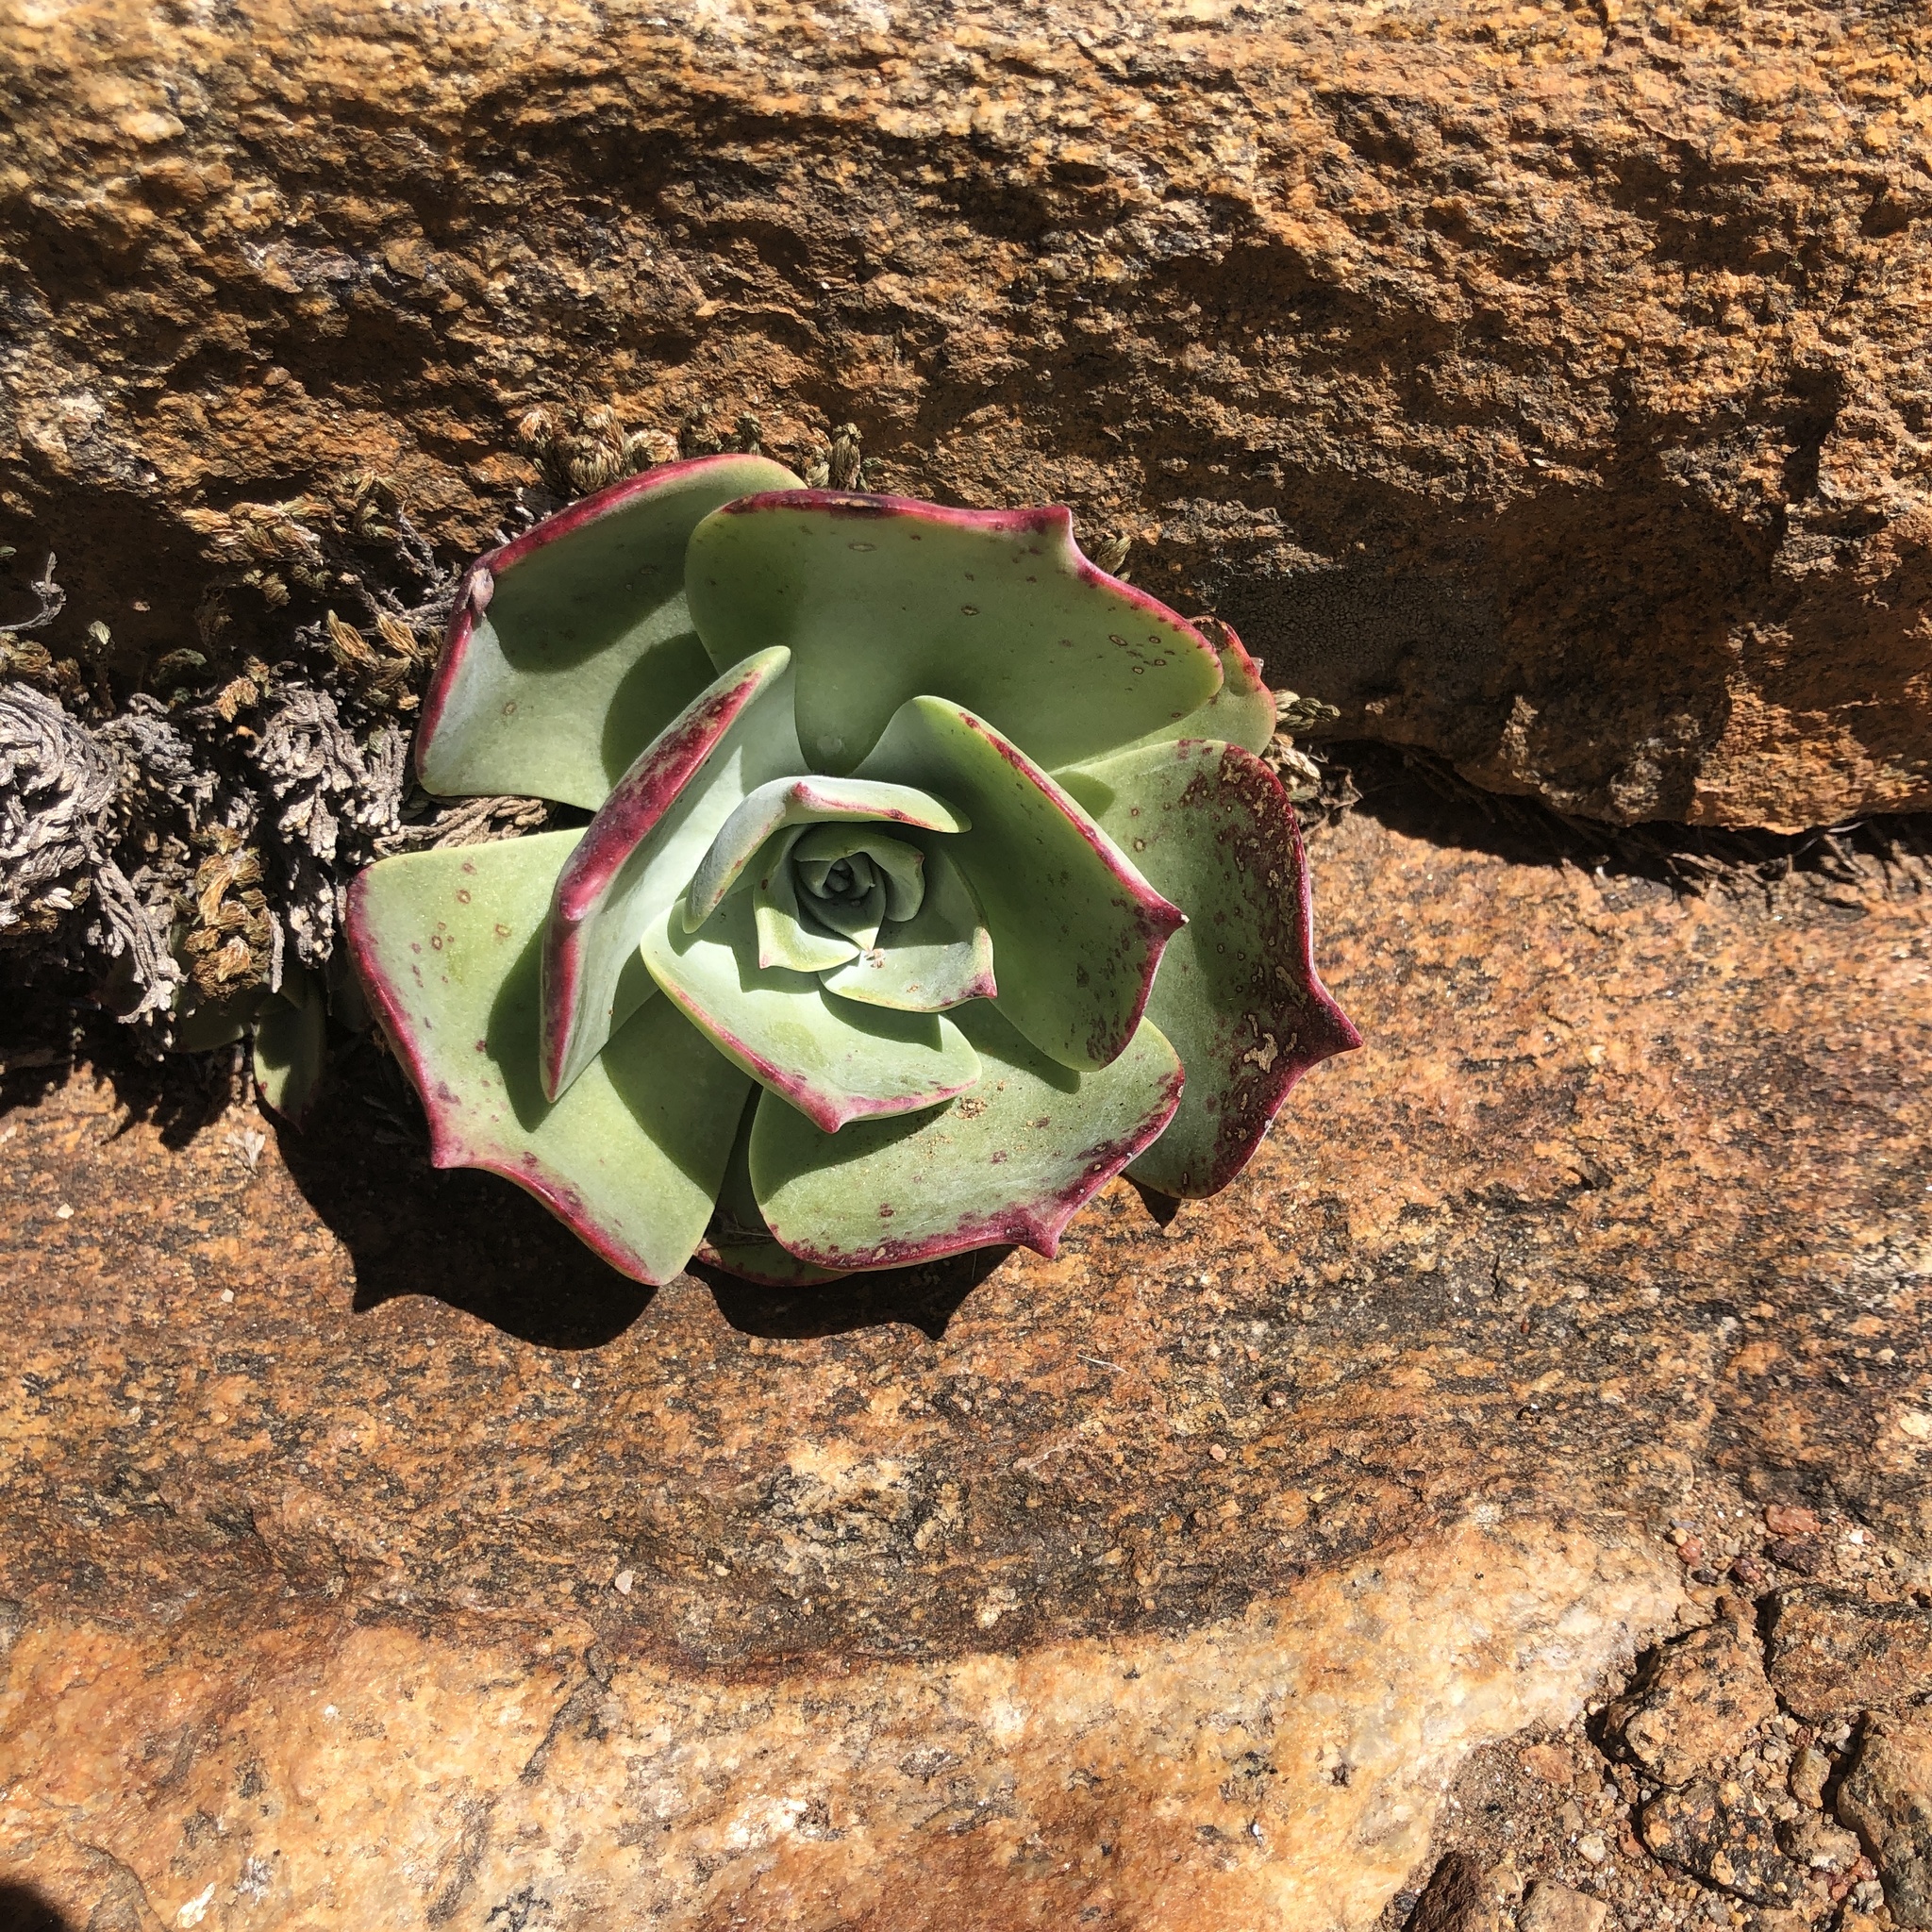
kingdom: Plantae
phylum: Tracheophyta
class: Magnoliopsida
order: Saxifragales
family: Crassulaceae
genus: Dudleya
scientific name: Dudleya arizonica
